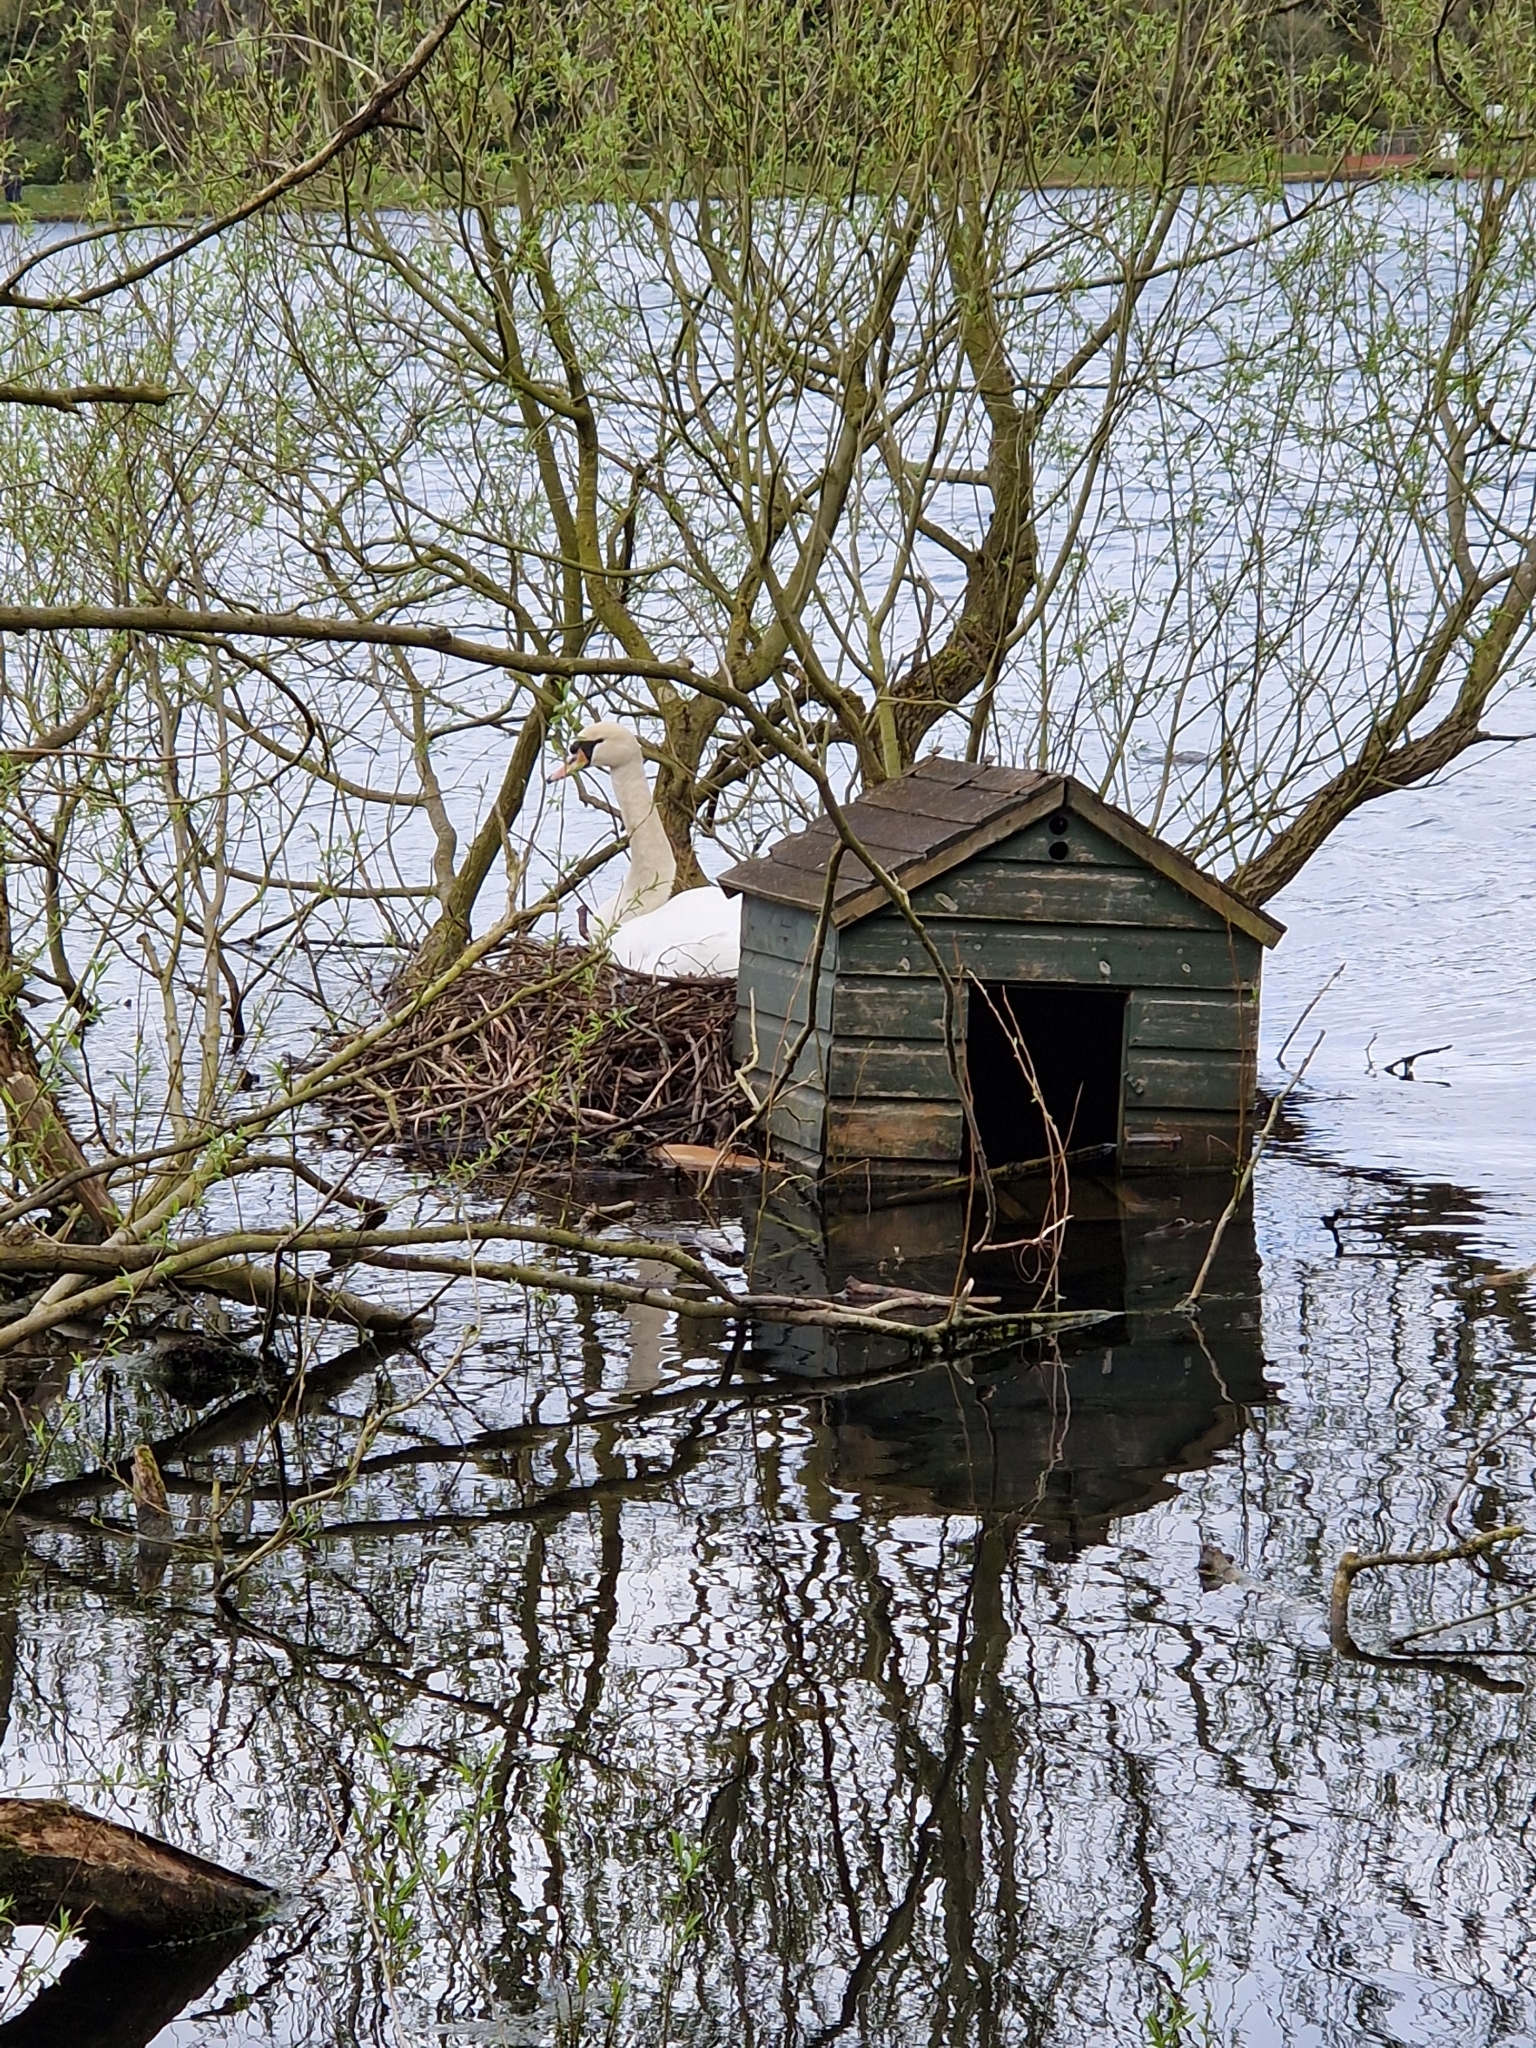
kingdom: Animalia
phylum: Chordata
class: Aves
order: Anseriformes
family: Anatidae
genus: Cygnus
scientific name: Cygnus olor
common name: Mute swan
